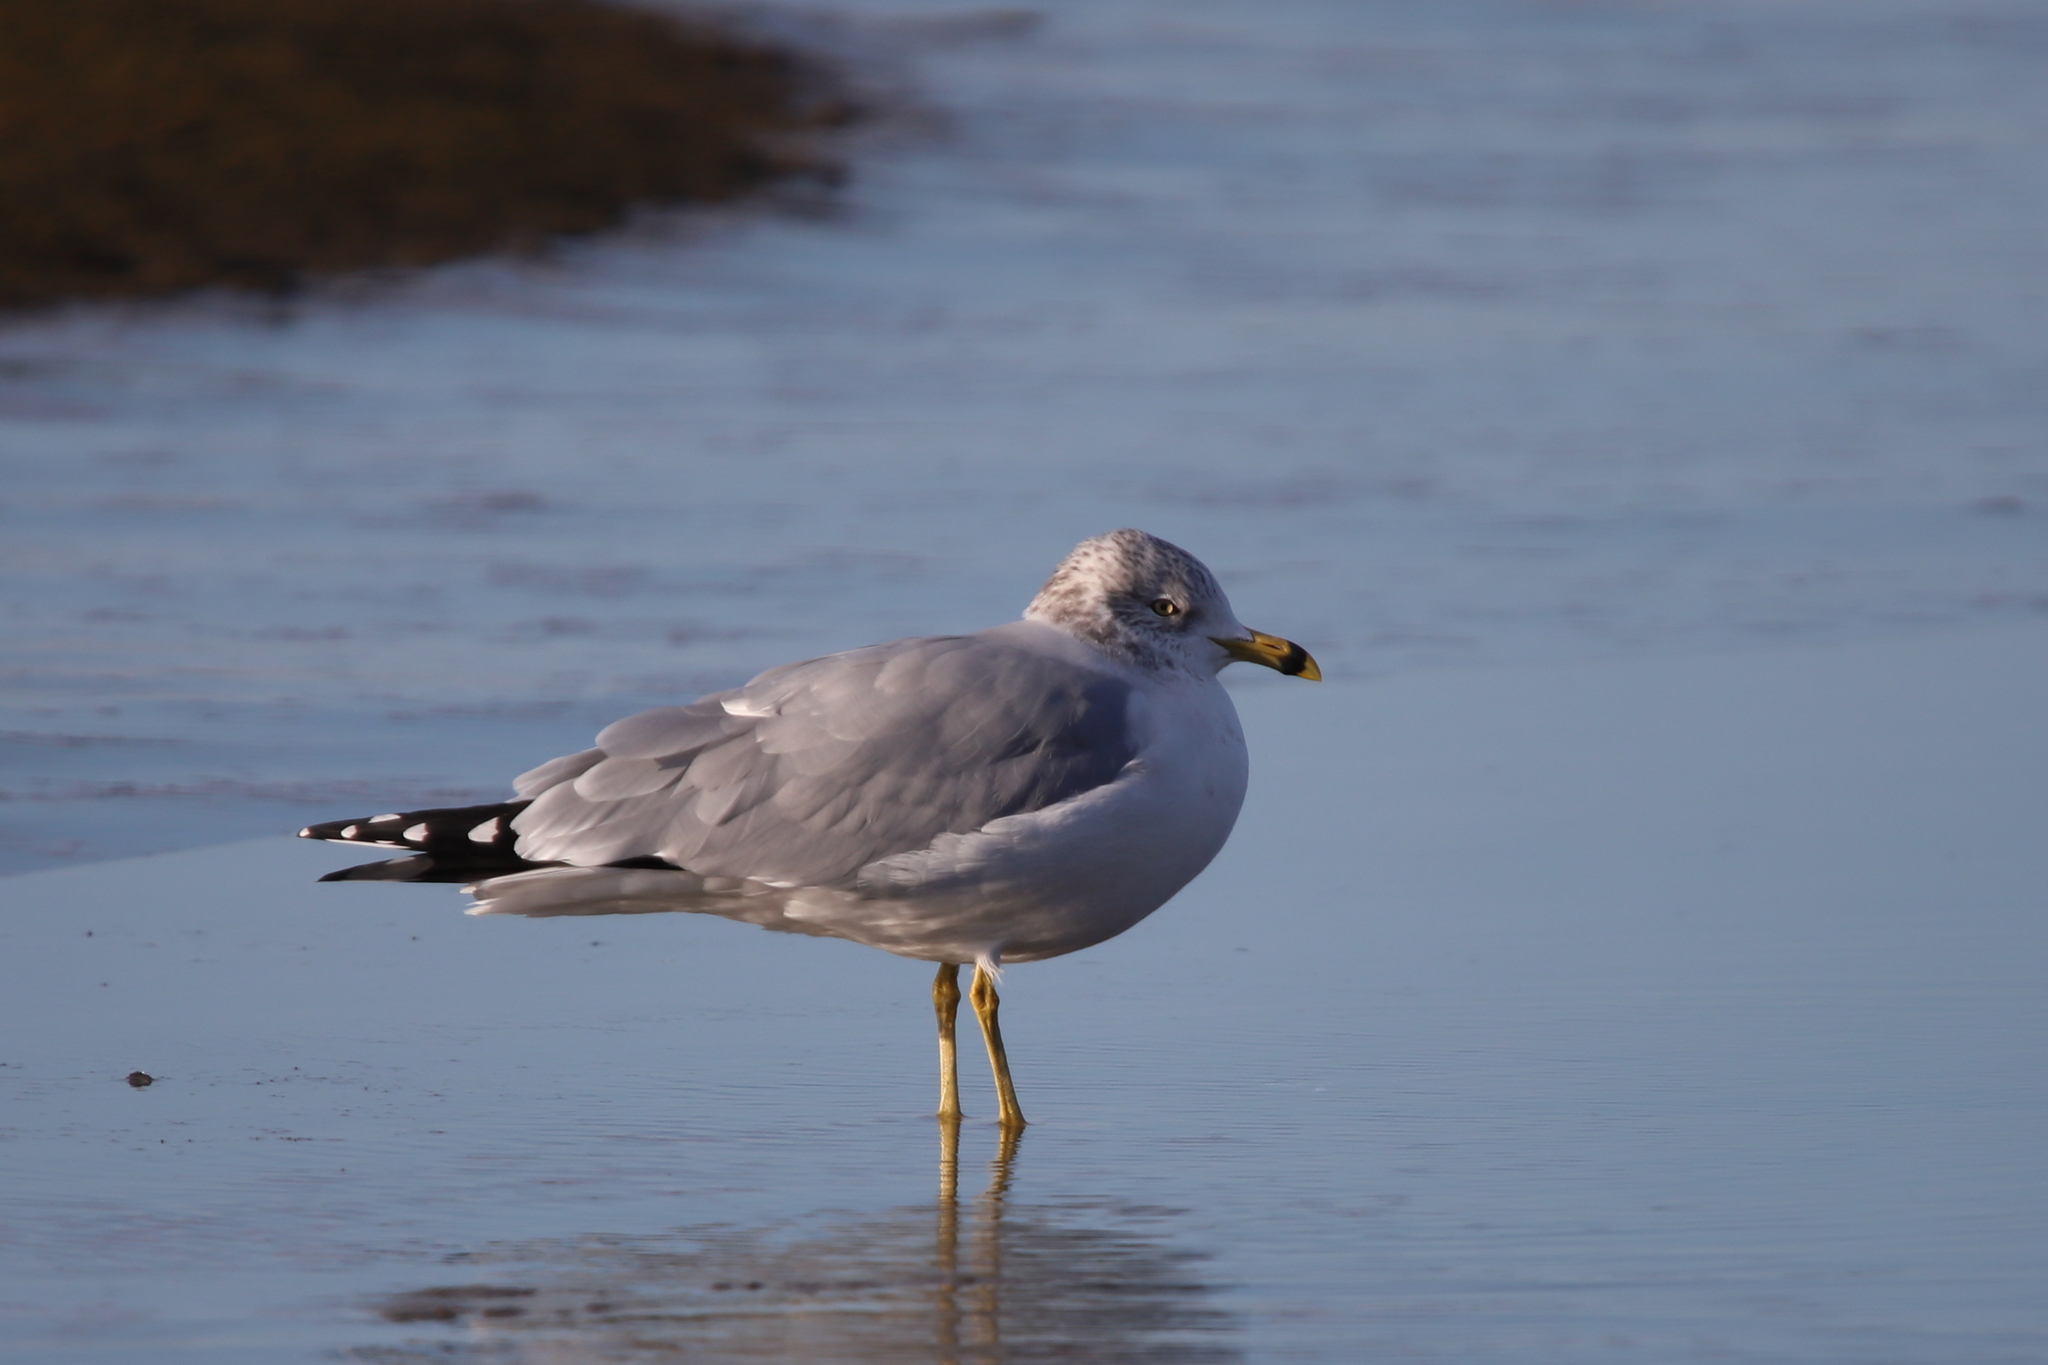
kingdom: Animalia
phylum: Chordata
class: Aves
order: Charadriiformes
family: Laridae
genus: Larus
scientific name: Larus delawarensis
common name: Ring-billed gull
